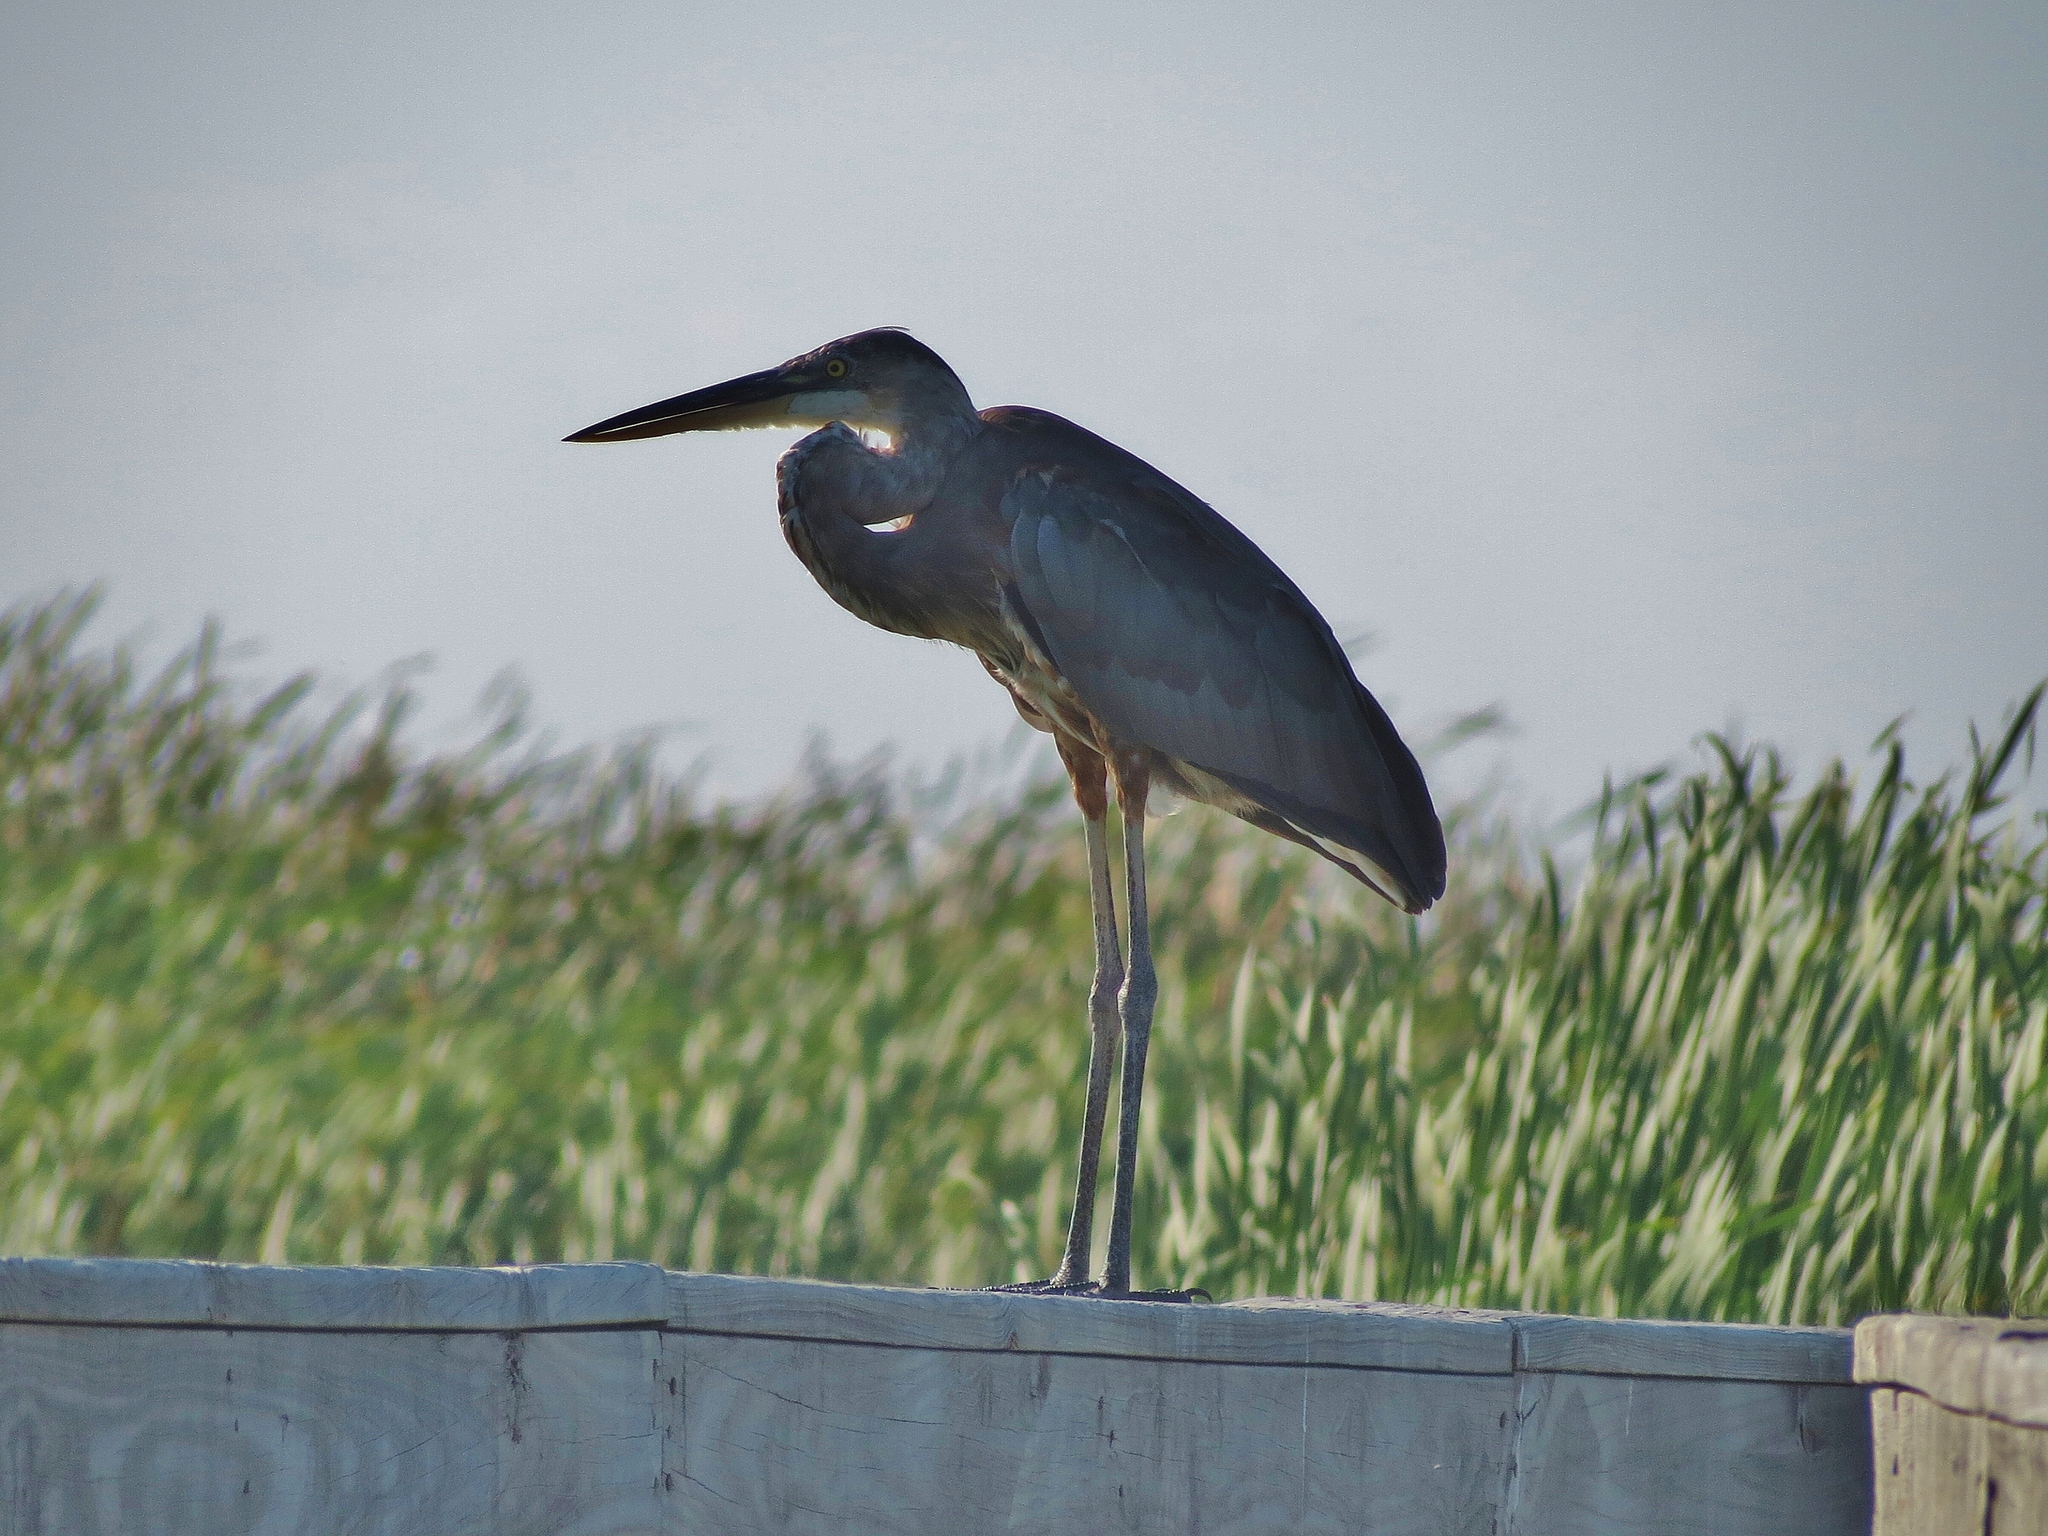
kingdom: Animalia
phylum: Chordata
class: Aves
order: Pelecaniformes
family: Ardeidae
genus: Ardea
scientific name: Ardea herodias
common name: Great blue heron
